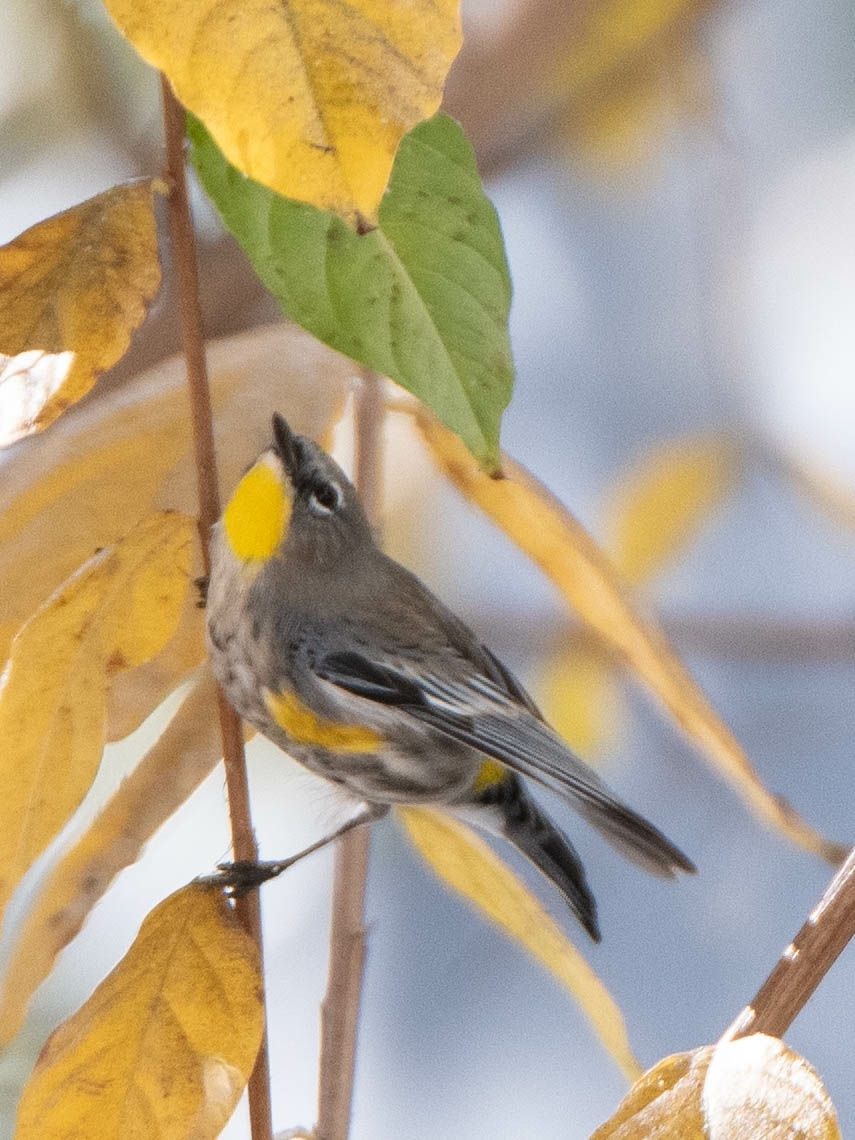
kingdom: Animalia
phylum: Chordata
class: Aves
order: Passeriformes
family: Parulidae
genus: Setophaga
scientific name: Setophaga auduboni
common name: Audubon's warbler
